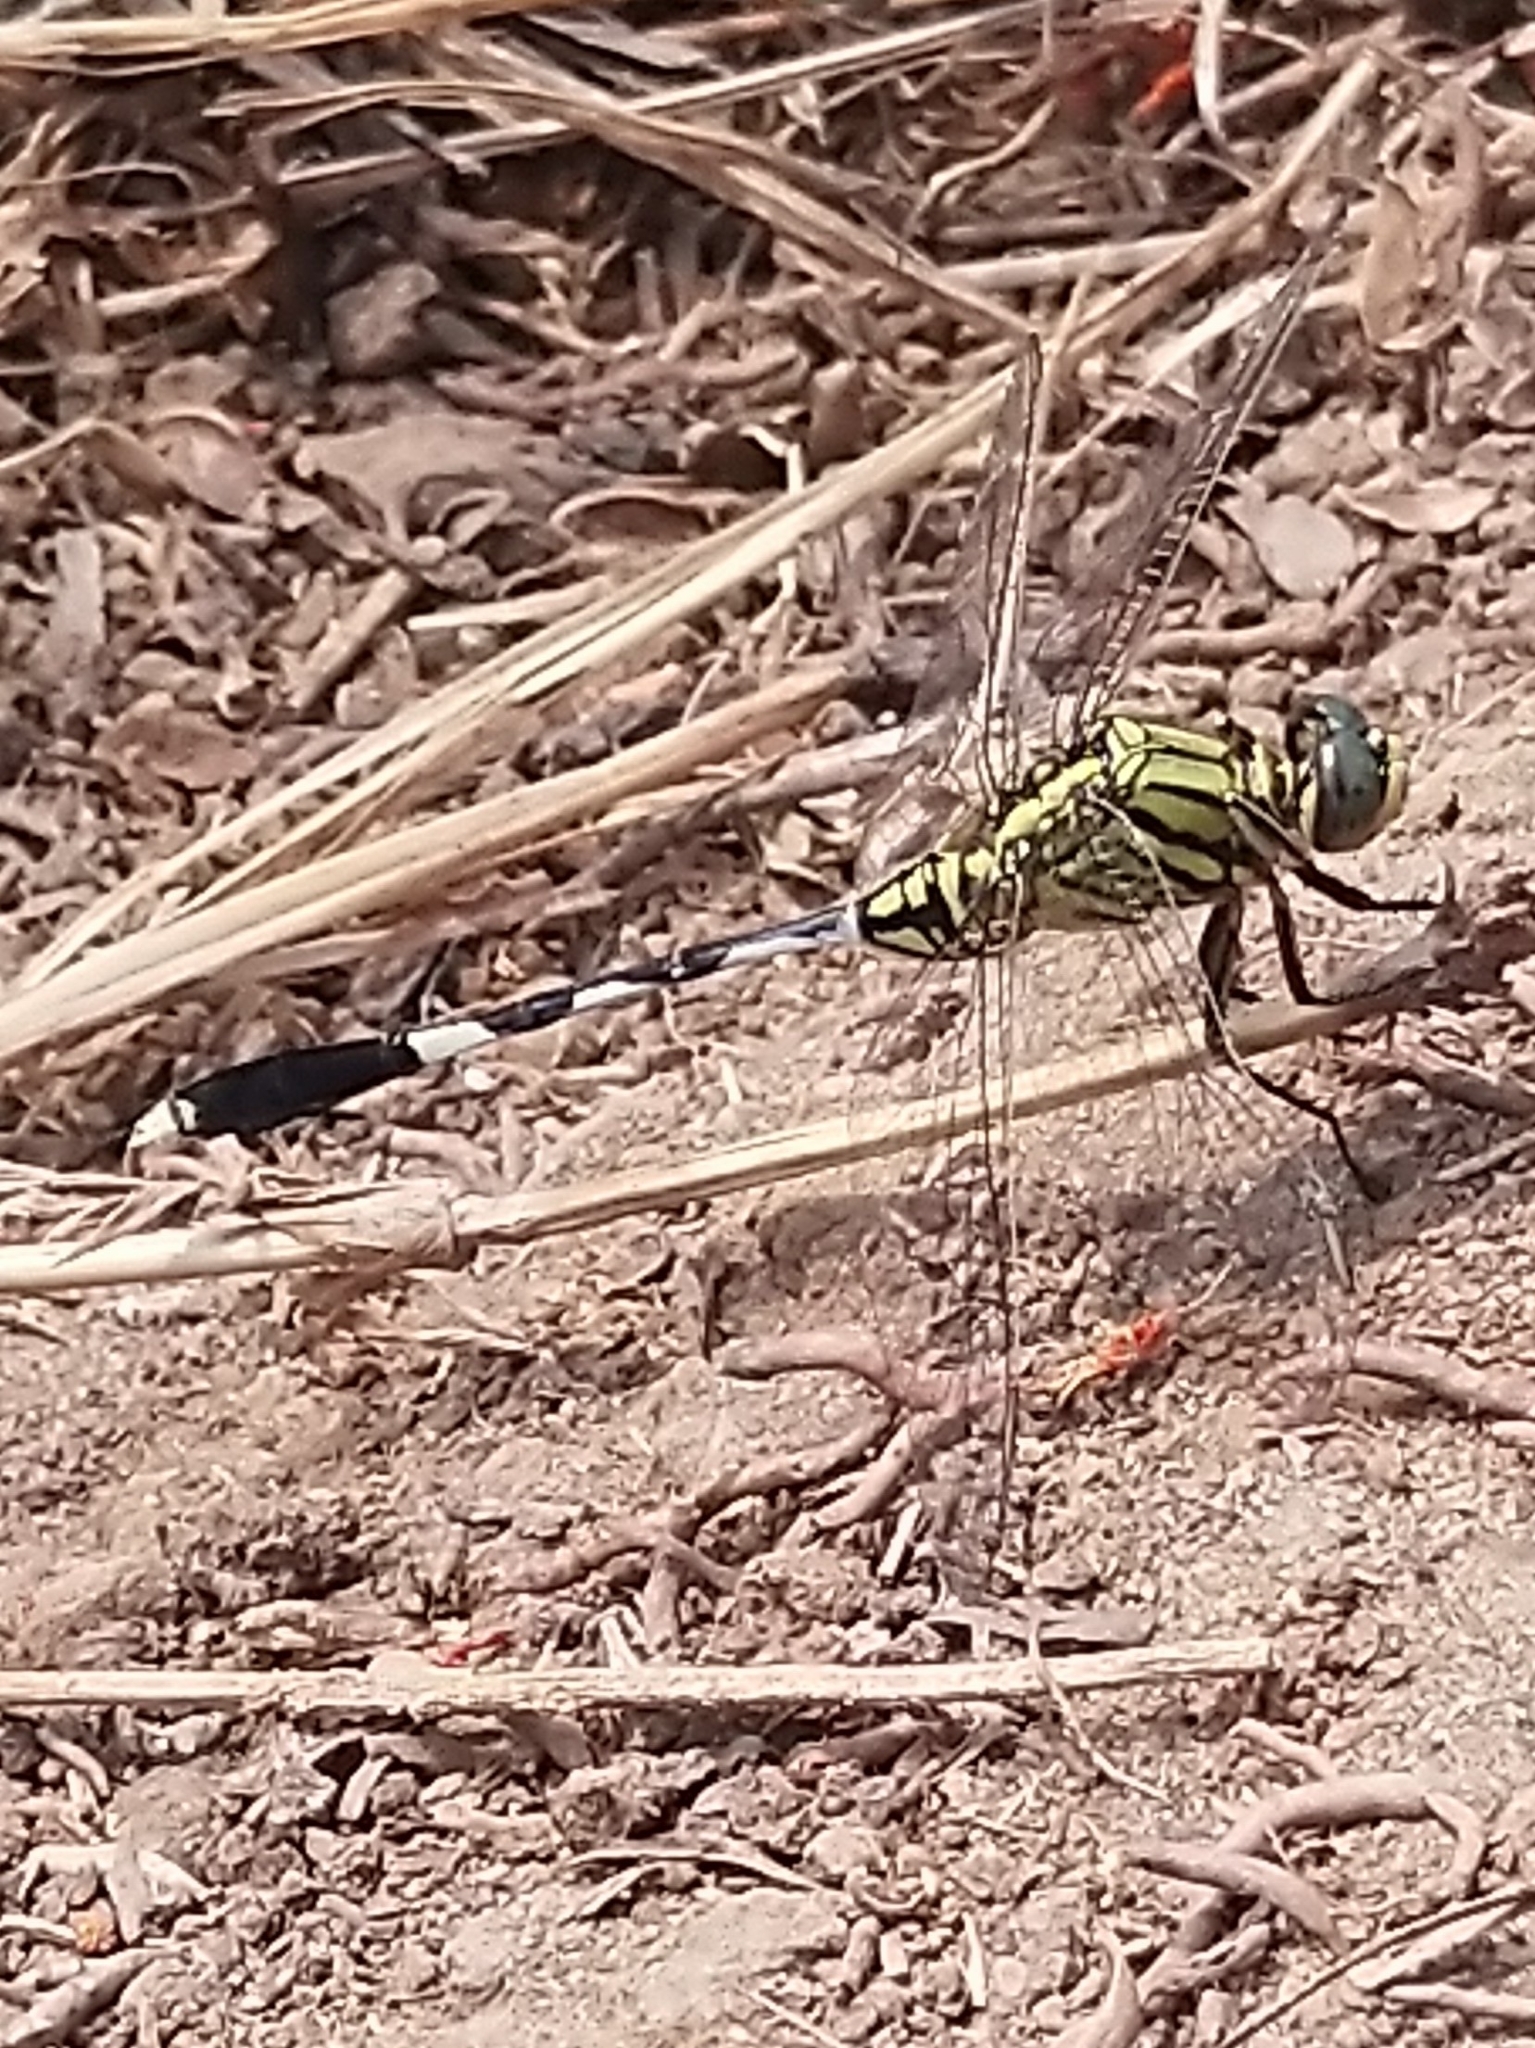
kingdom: Animalia
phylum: Arthropoda
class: Insecta
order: Odonata
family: Libellulidae
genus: Orthetrum
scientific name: Orthetrum sabina
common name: Slender skimmer
